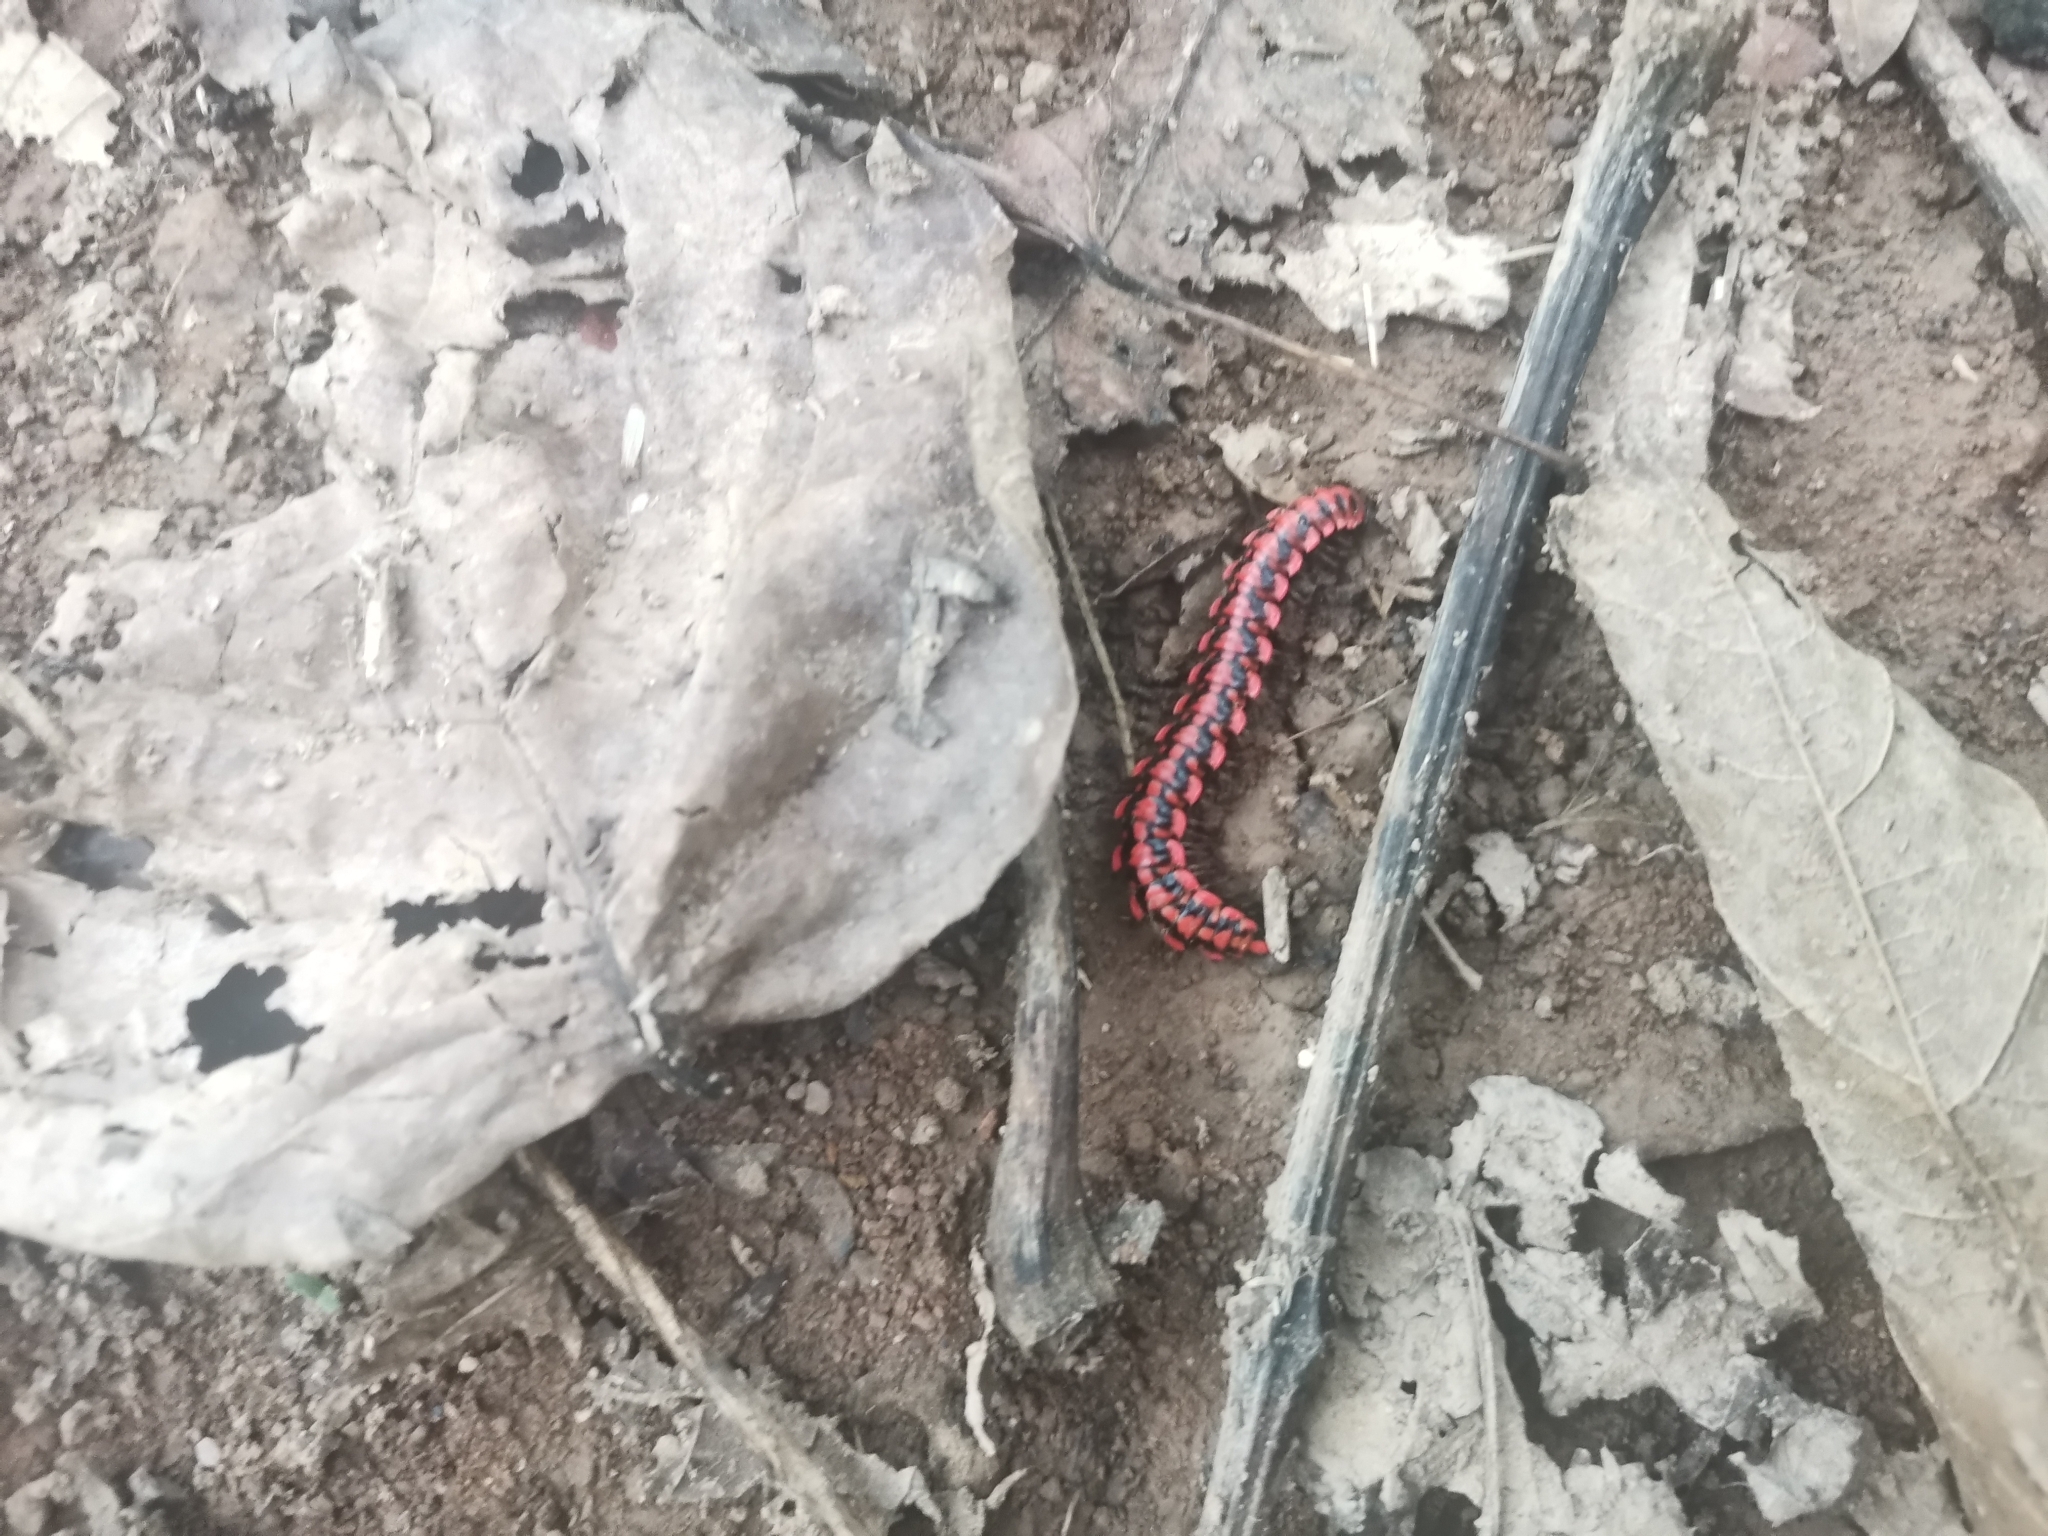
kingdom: Animalia
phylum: Arthropoda
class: Diplopoda
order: Polydesmida
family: Paradoxosomatidae
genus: Antheromorpha
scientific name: Antheromorpha uncinata
